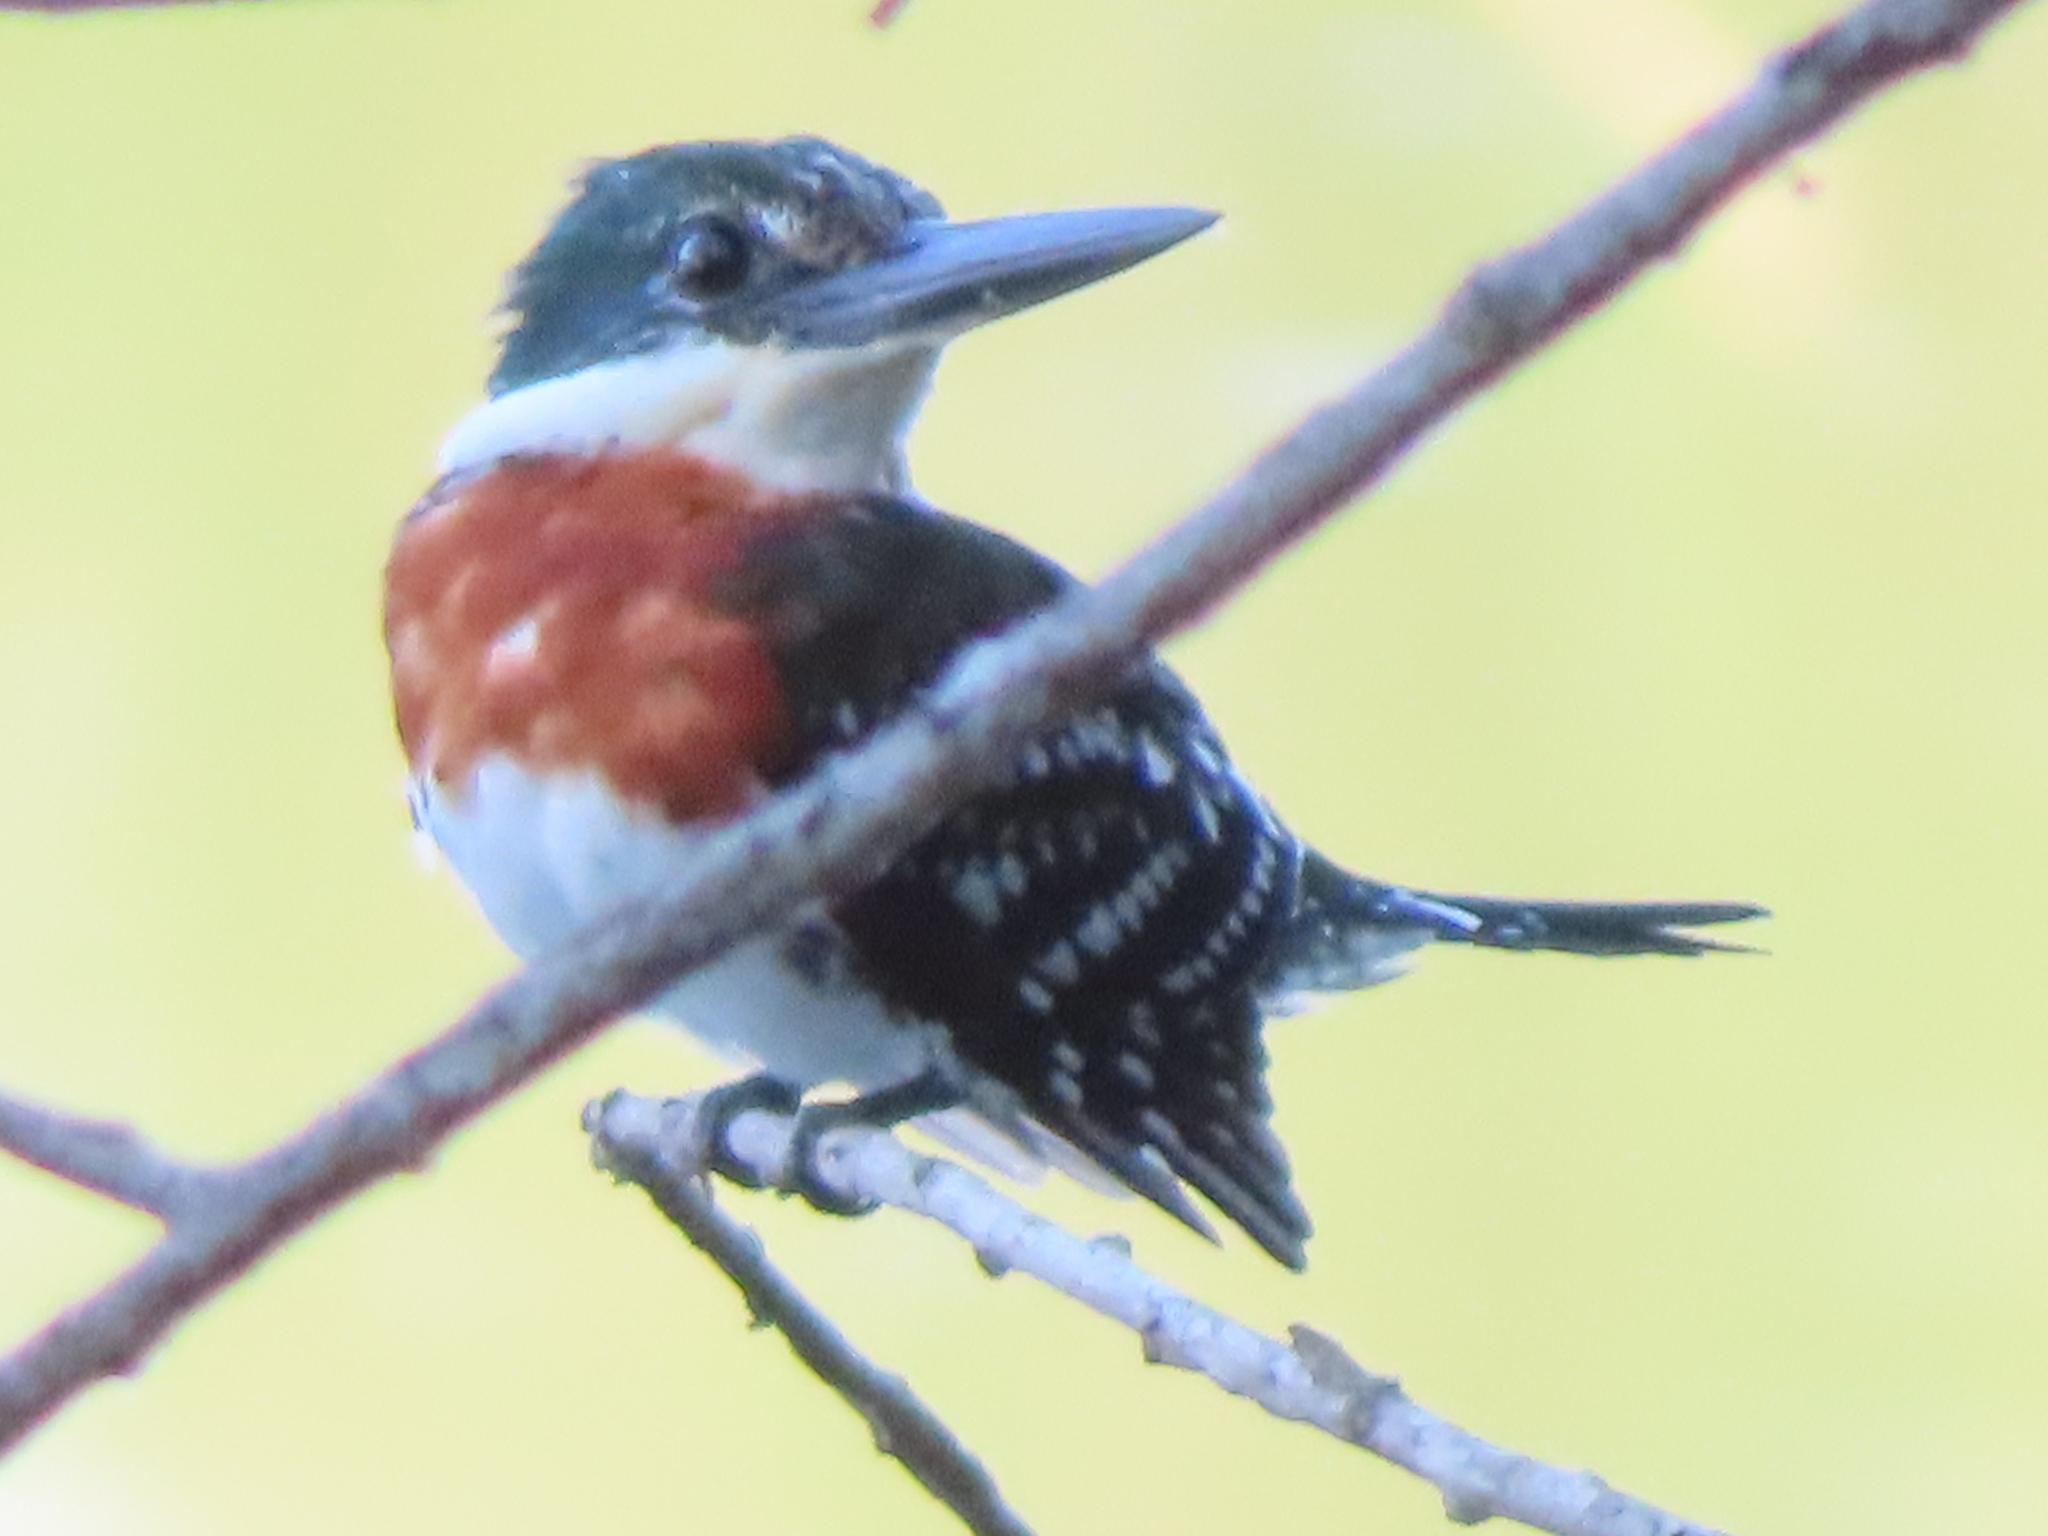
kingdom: Animalia
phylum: Chordata
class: Aves
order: Coraciiformes
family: Alcedinidae
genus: Chloroceryle
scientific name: Chloroceryle americana
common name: Green kingfisher
